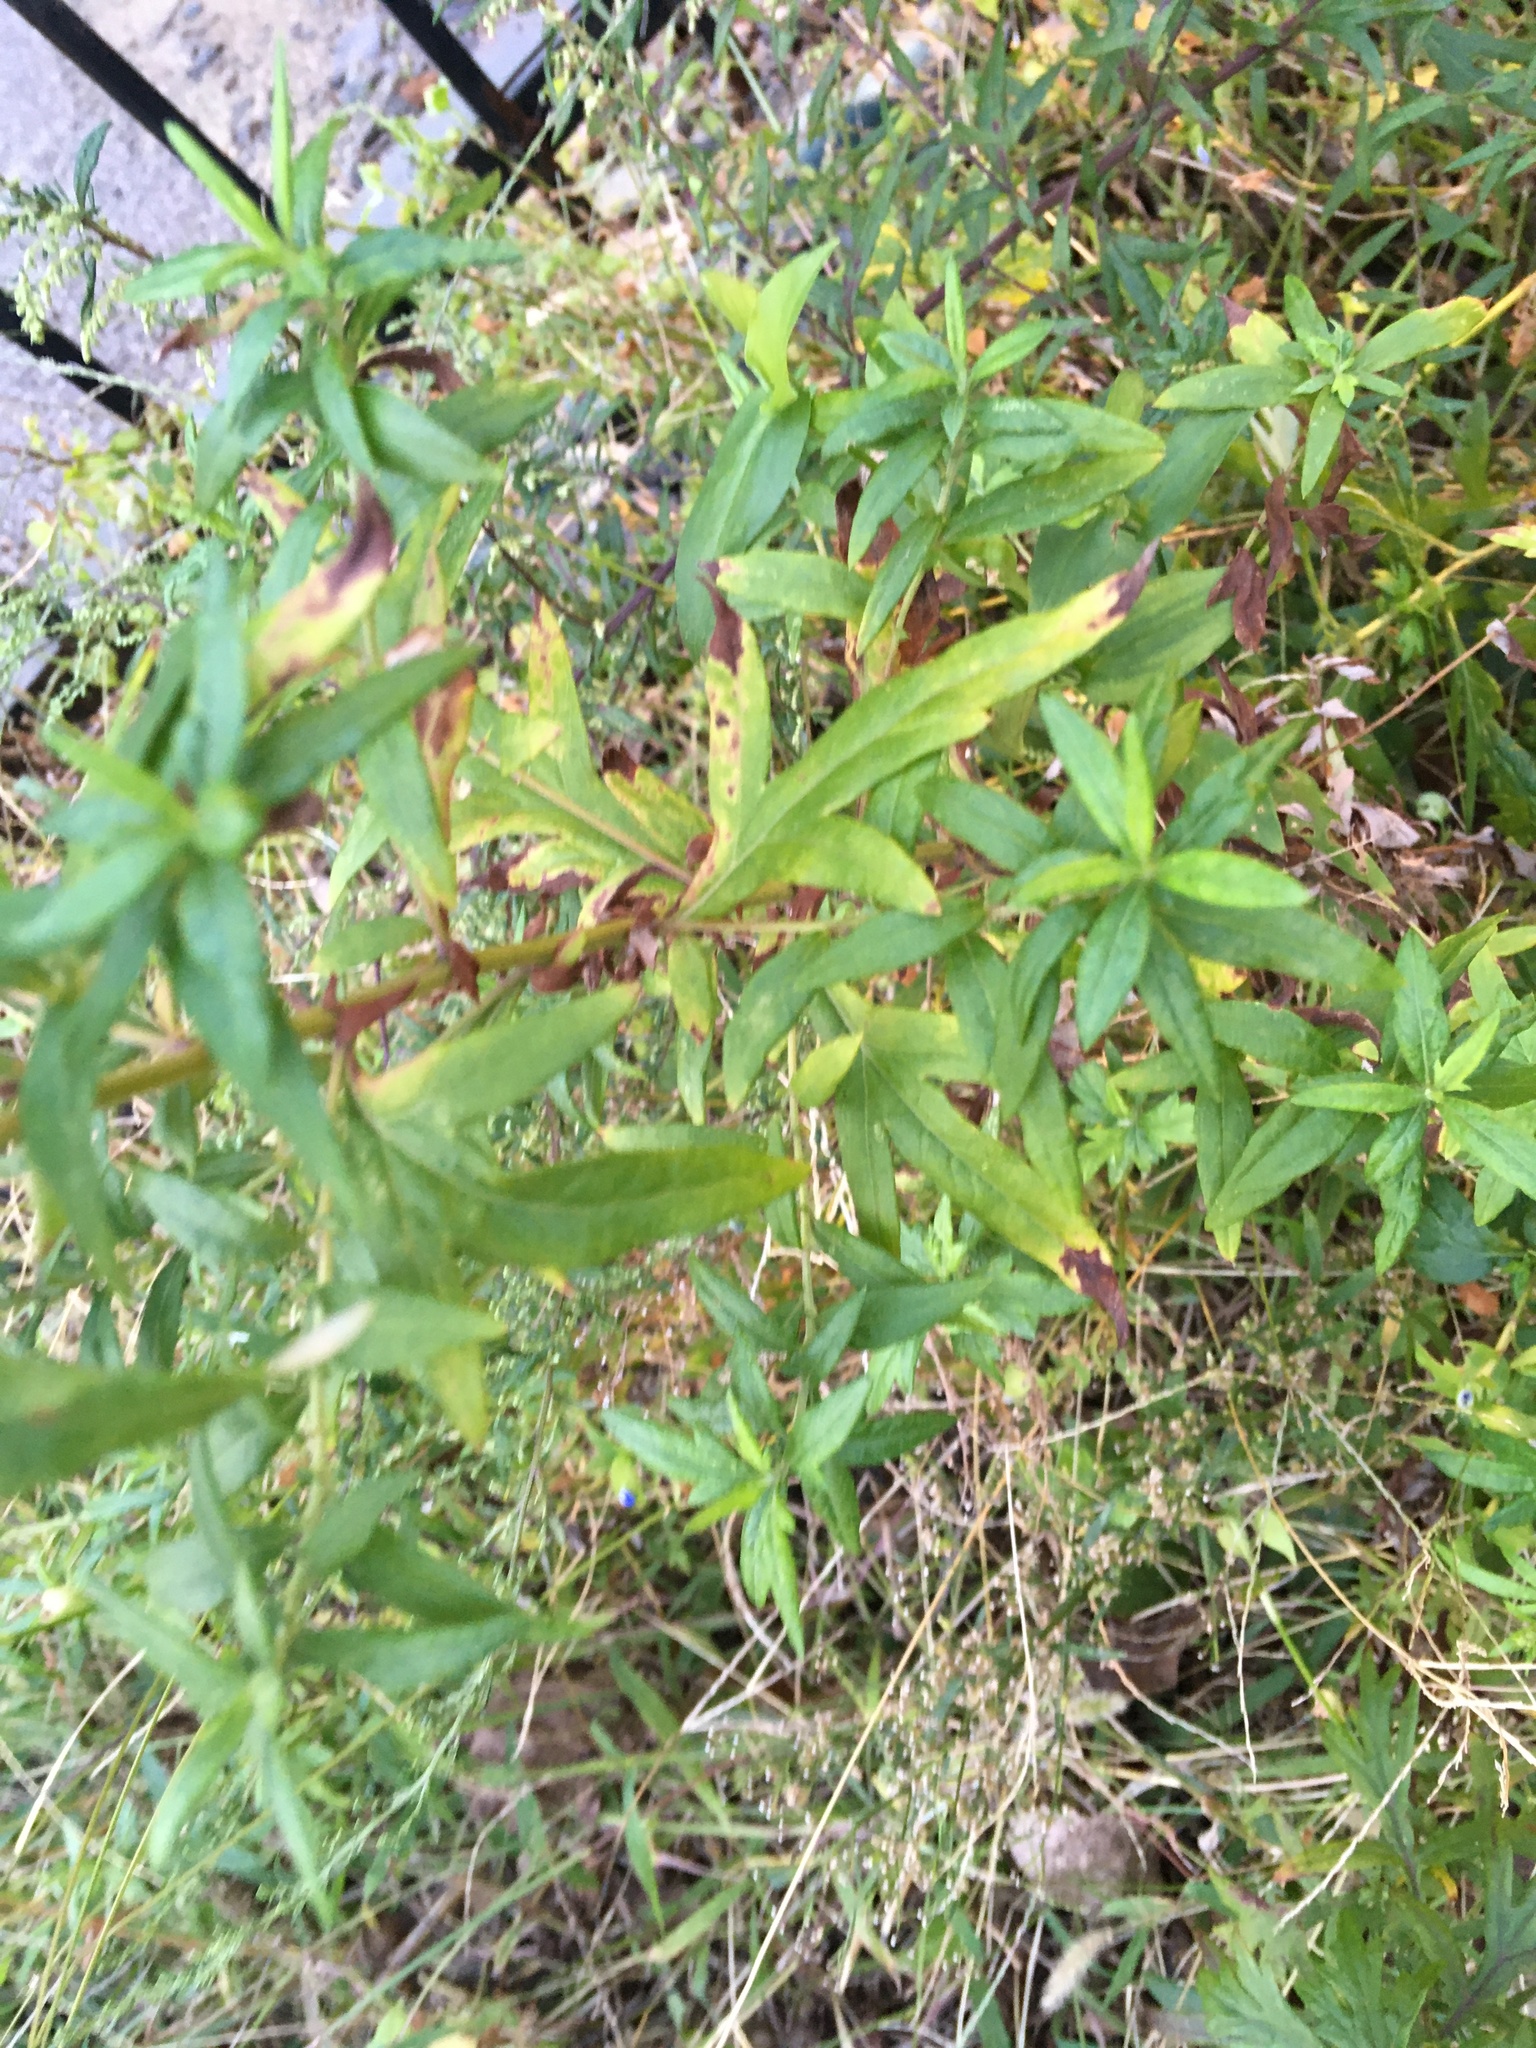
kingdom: Plantae
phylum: Tracheophyta
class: Magnoliopsida
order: Asterales
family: Asteraceae
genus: Artemisia
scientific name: Artemisia vulgaris
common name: Mugwort
